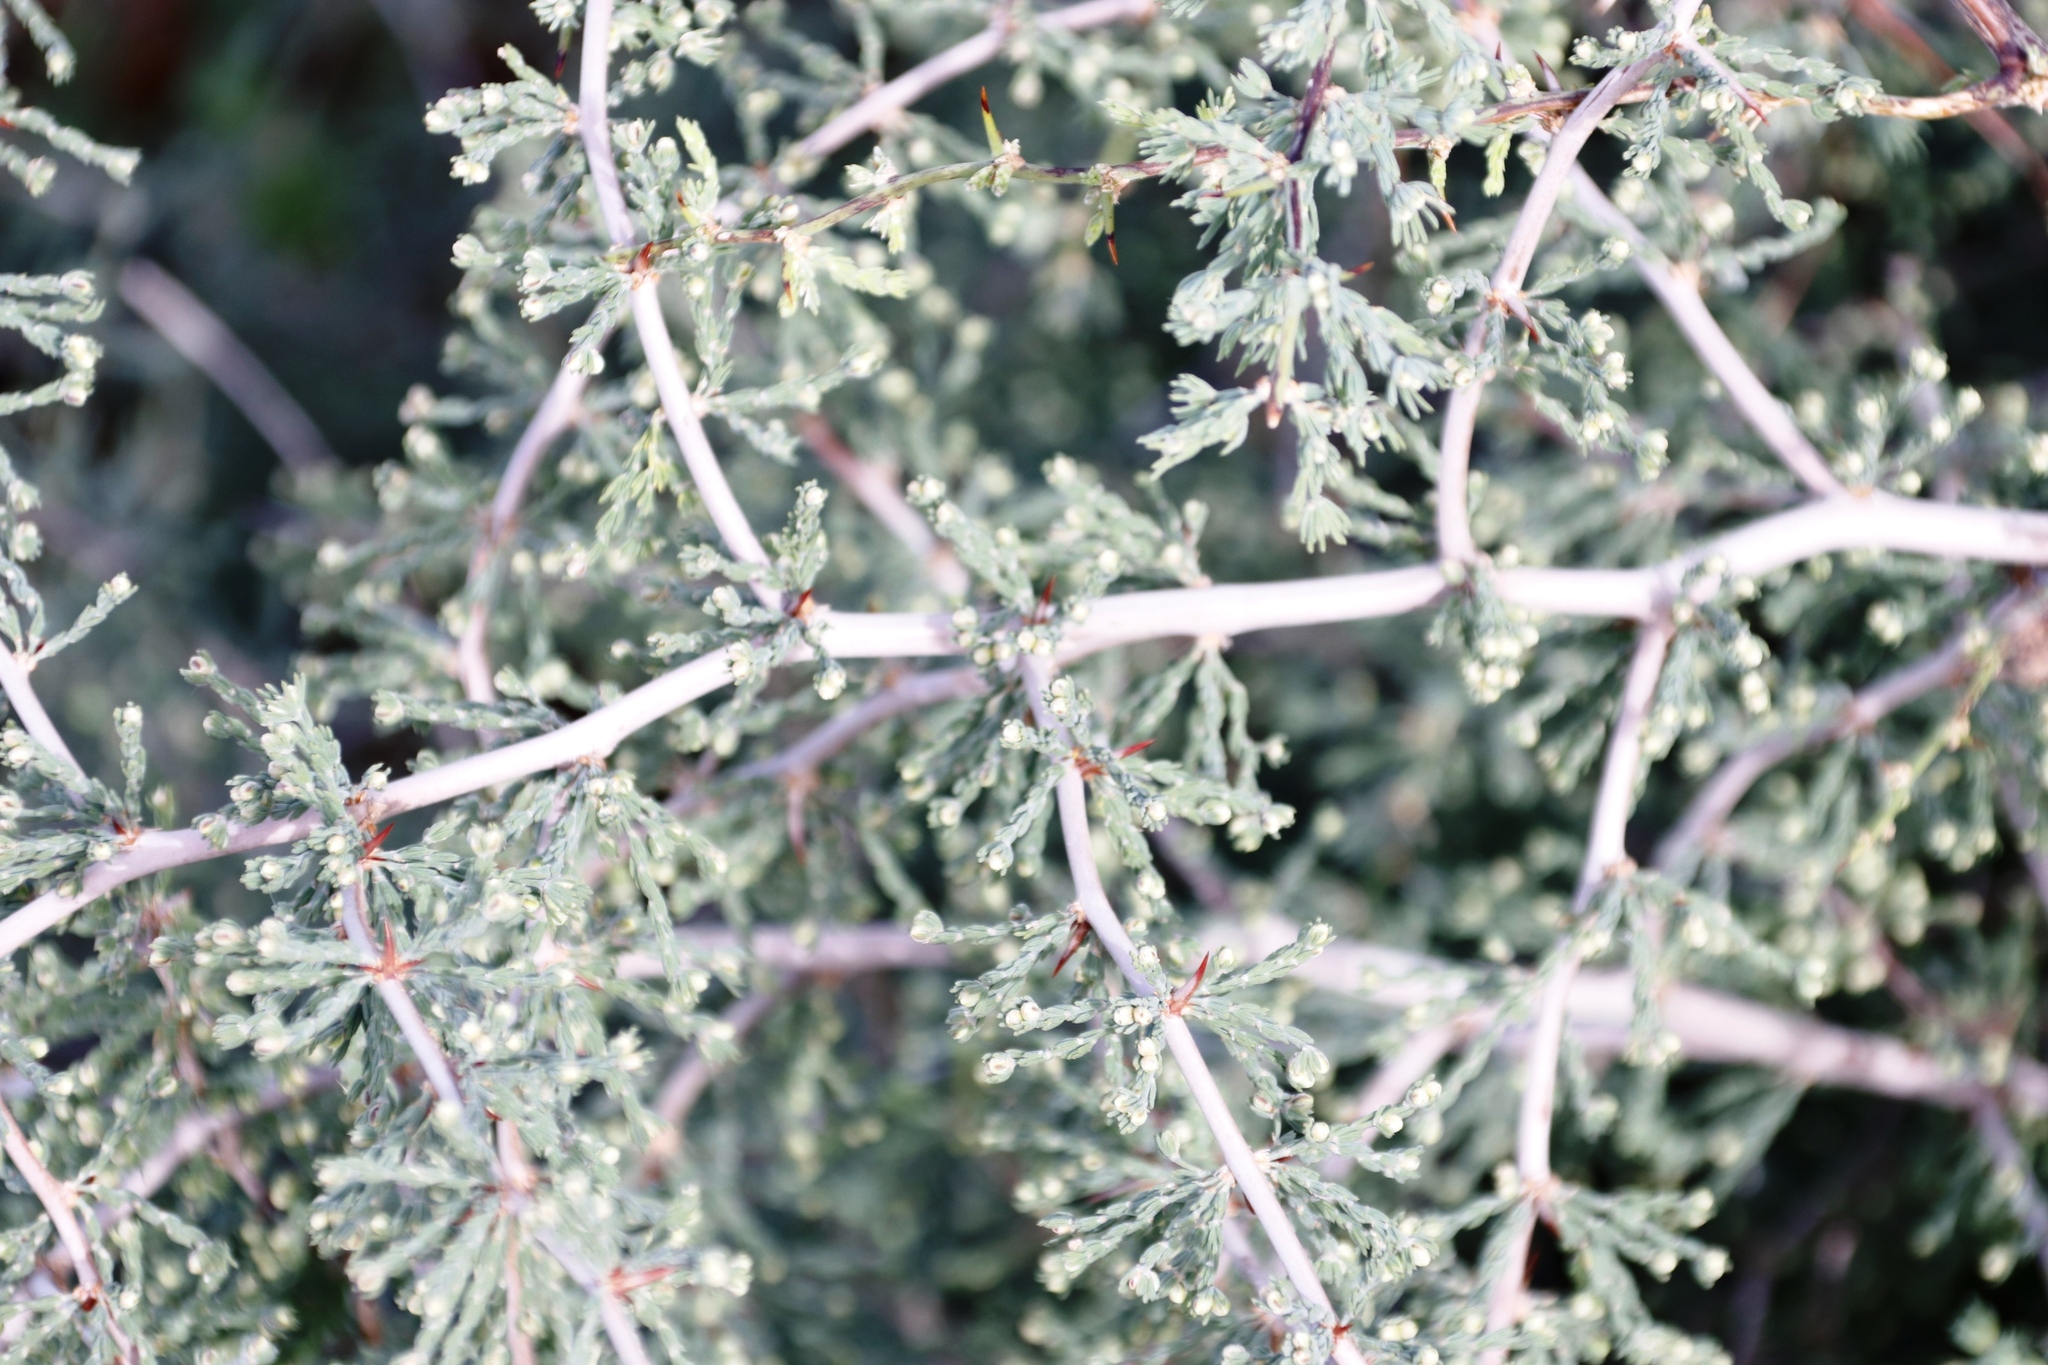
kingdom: Plantae
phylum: Tracheophyta
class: Liliopsida
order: Asparagales
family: Asparagaceae
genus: Asparagus
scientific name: Asparagus capensis
